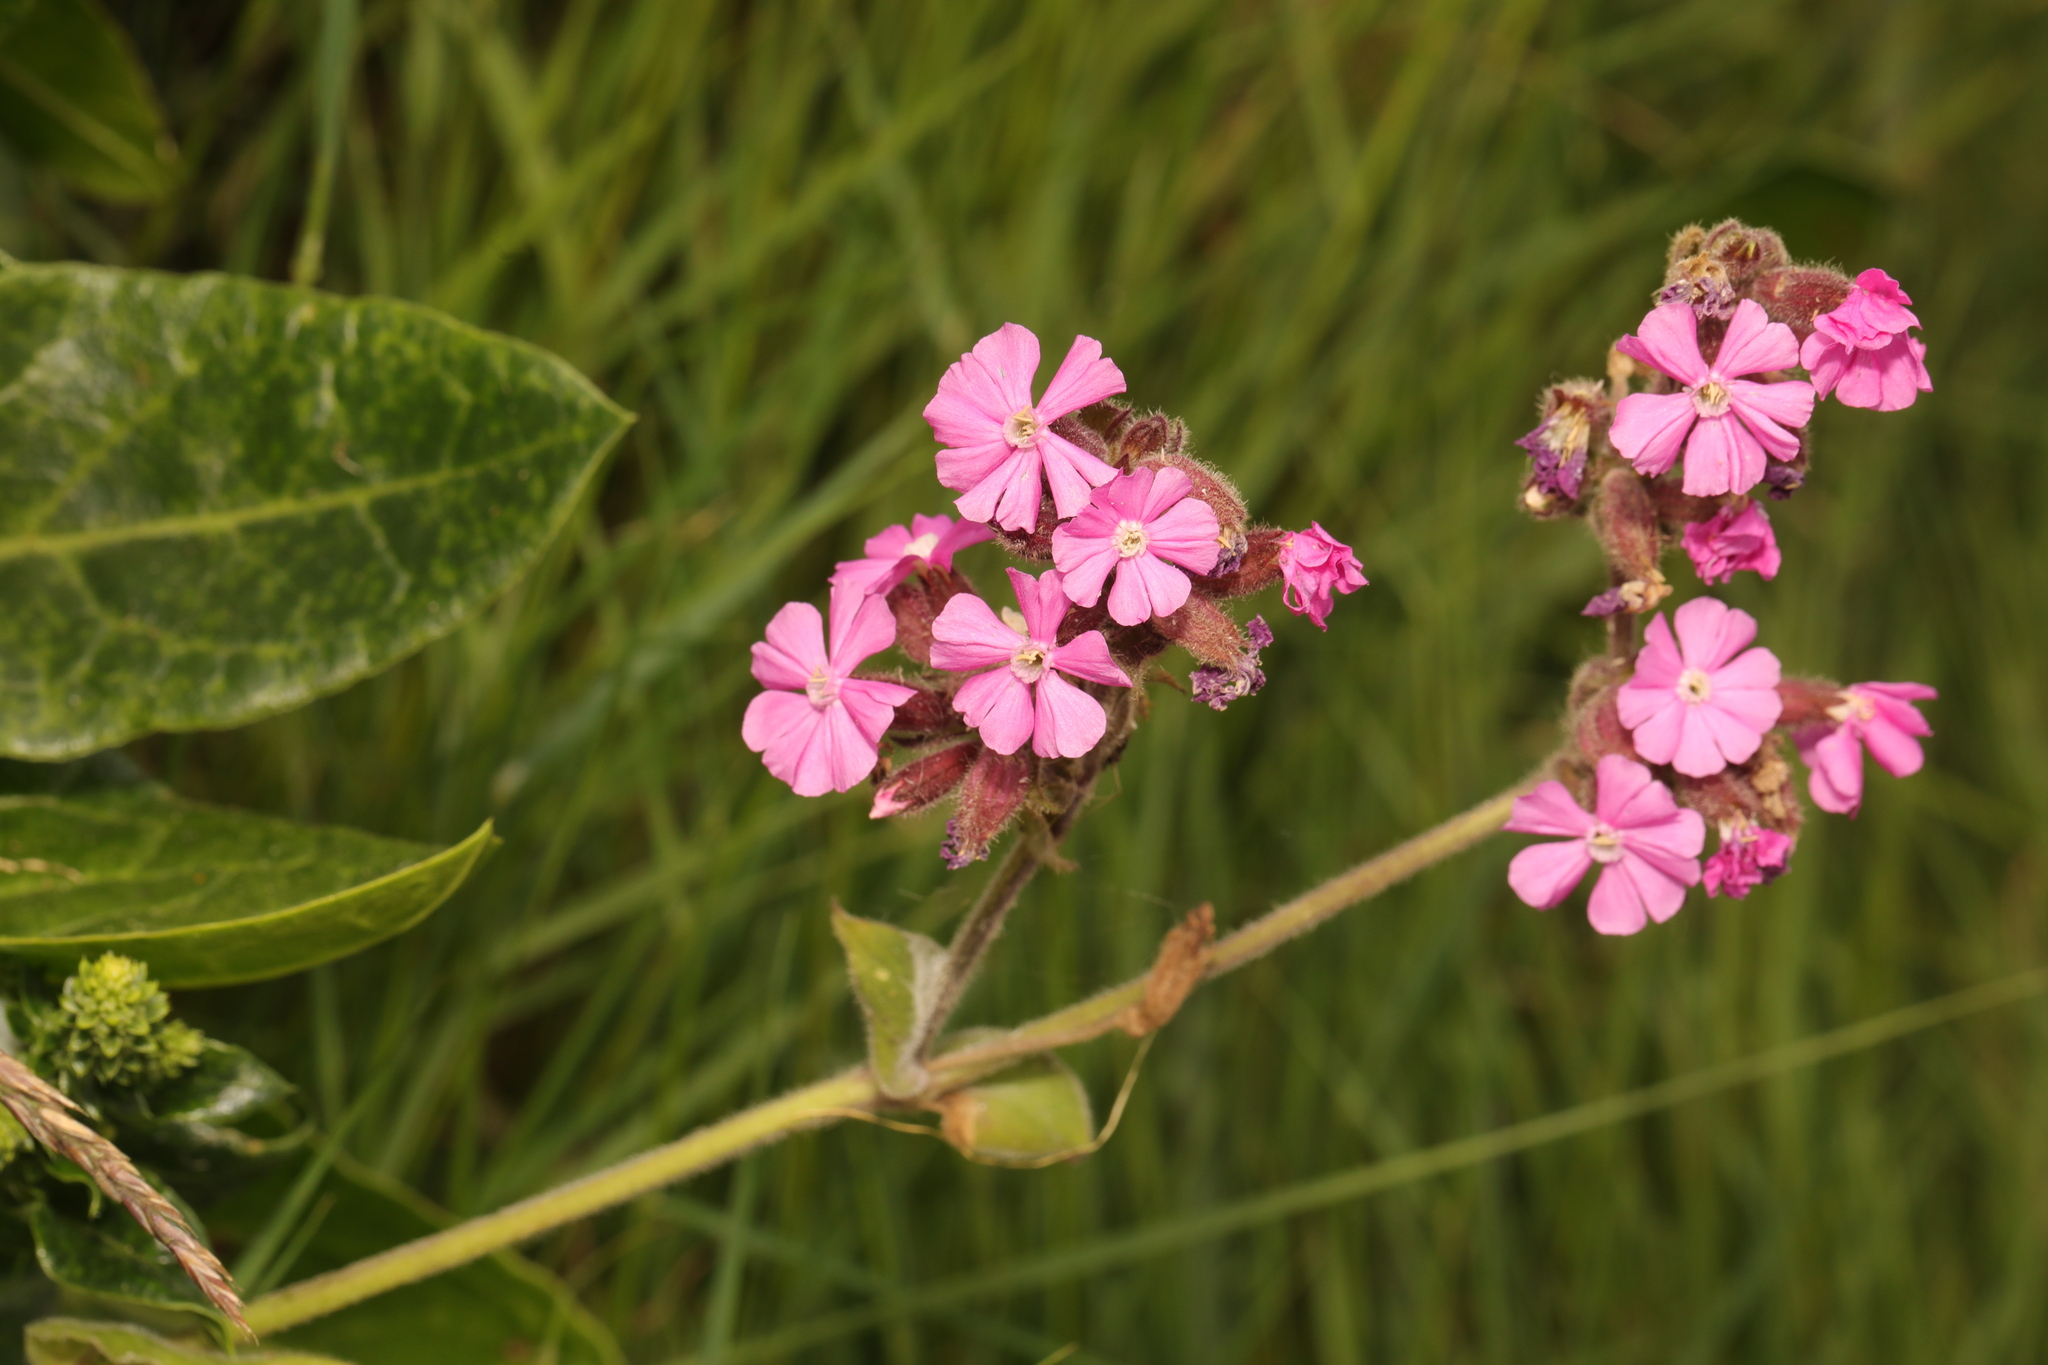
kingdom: Plantae
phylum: Tracheophyta
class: Magnoliopsida
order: Caryophyllales
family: Caryophyllaceae
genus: Silene
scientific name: Silene dioica
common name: Red campion
